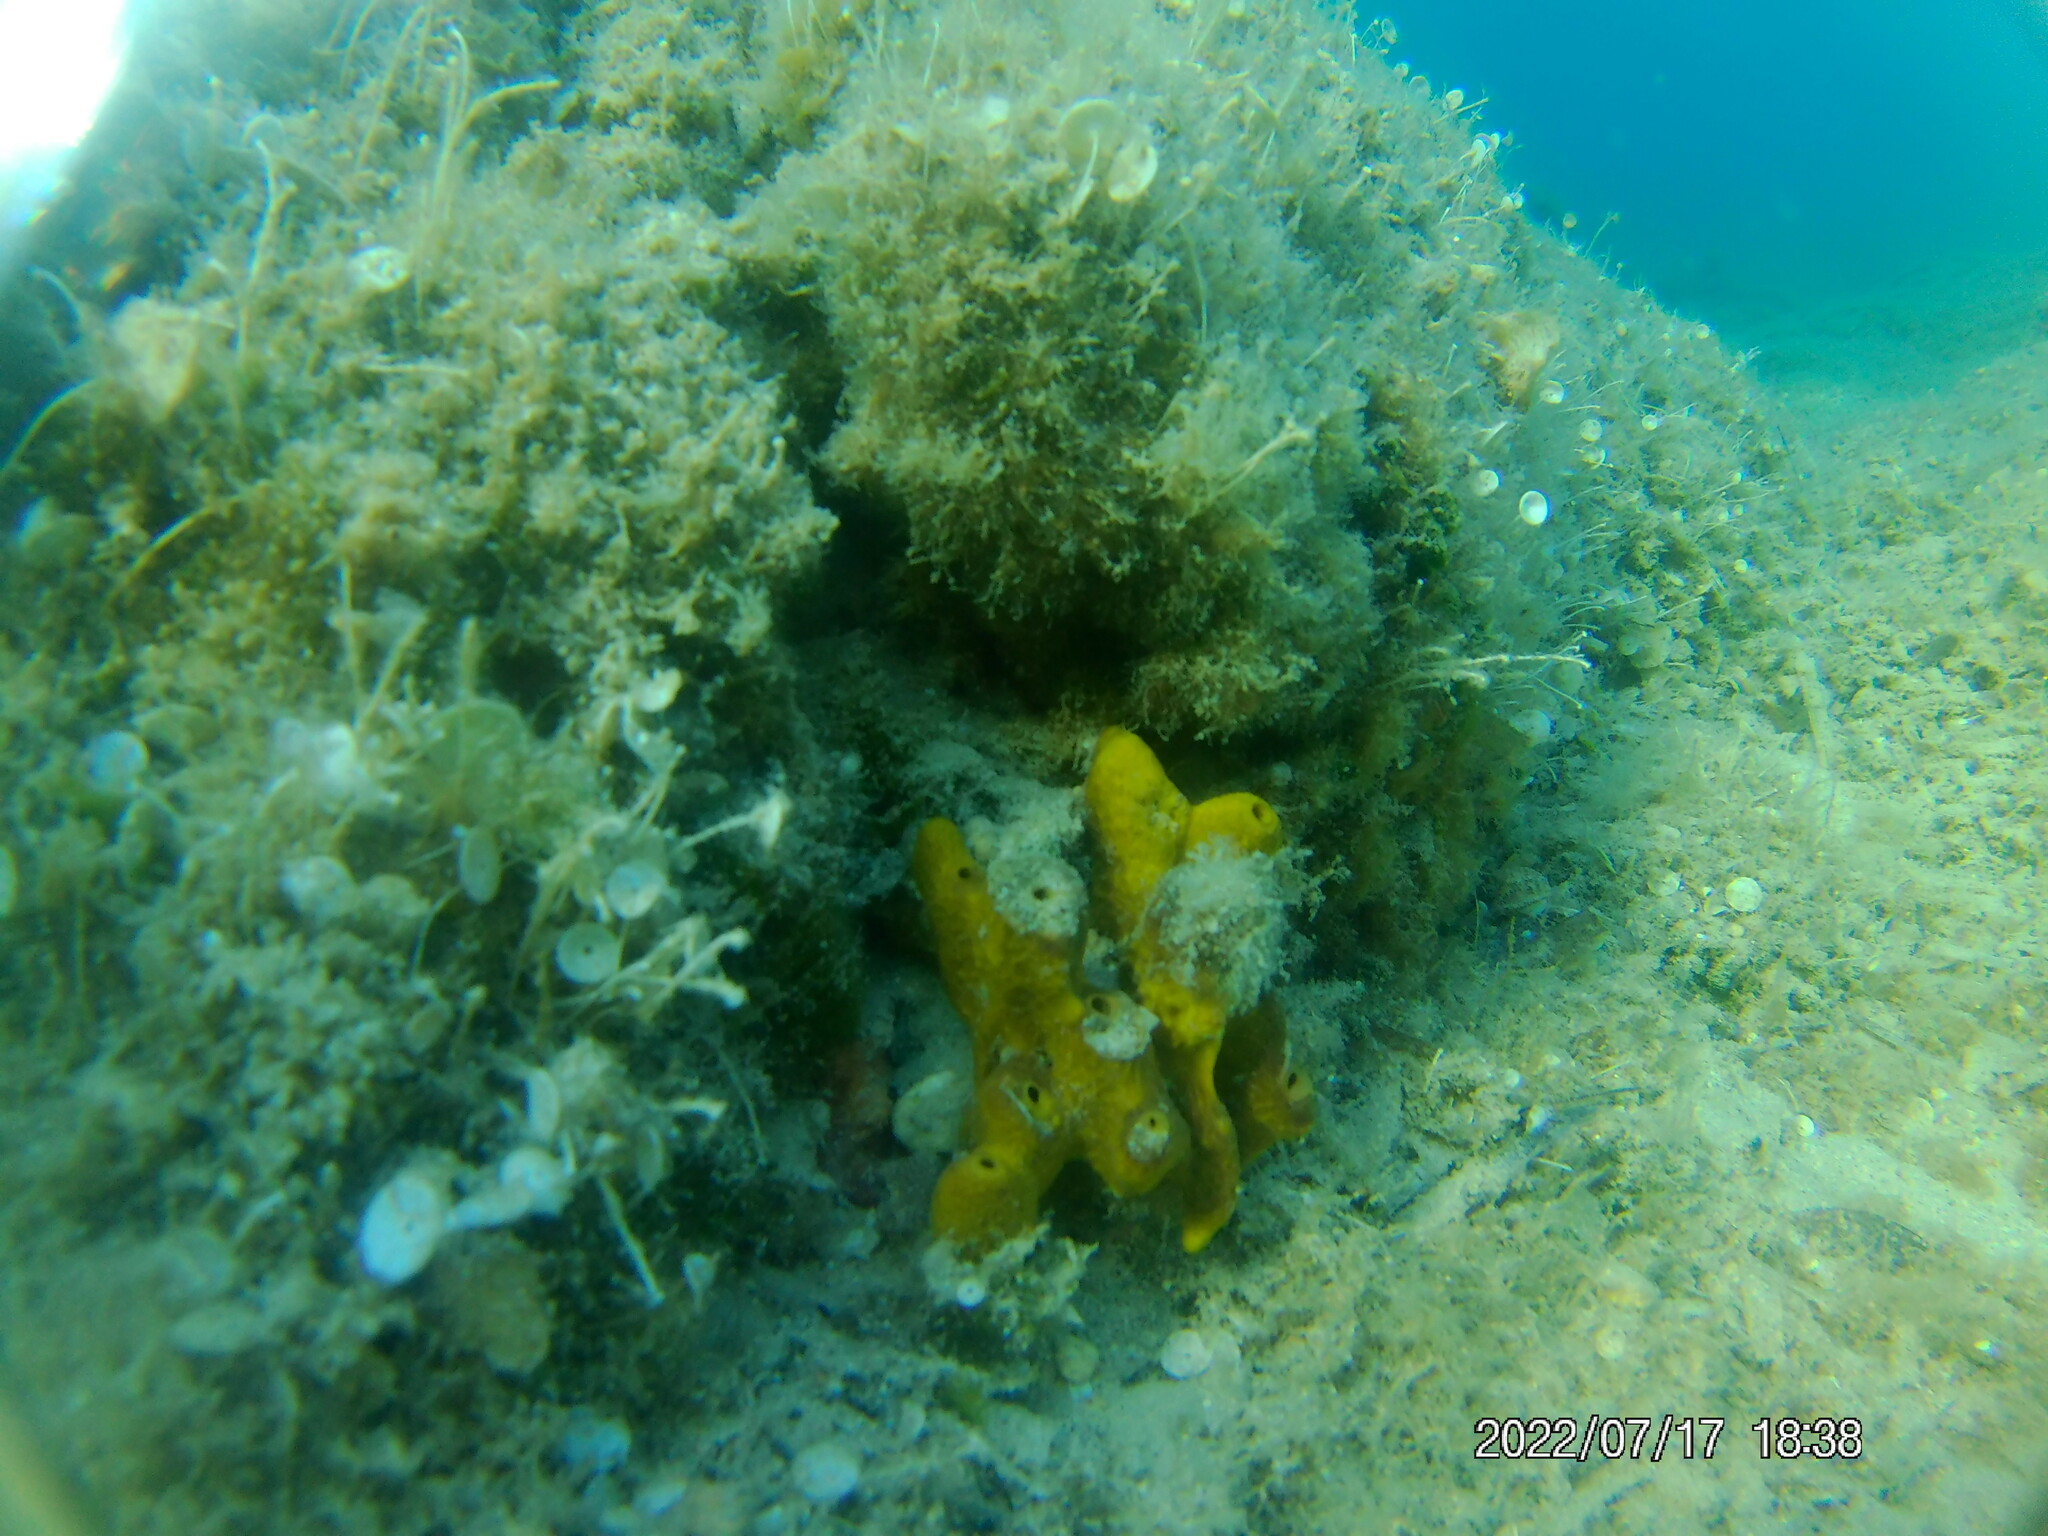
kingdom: Animalia
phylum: Porifera
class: Demospongiae
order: Verongiida
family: Aplysinidae
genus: Aplysina
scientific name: Aplysina aerophoba
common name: Aureate sponge
